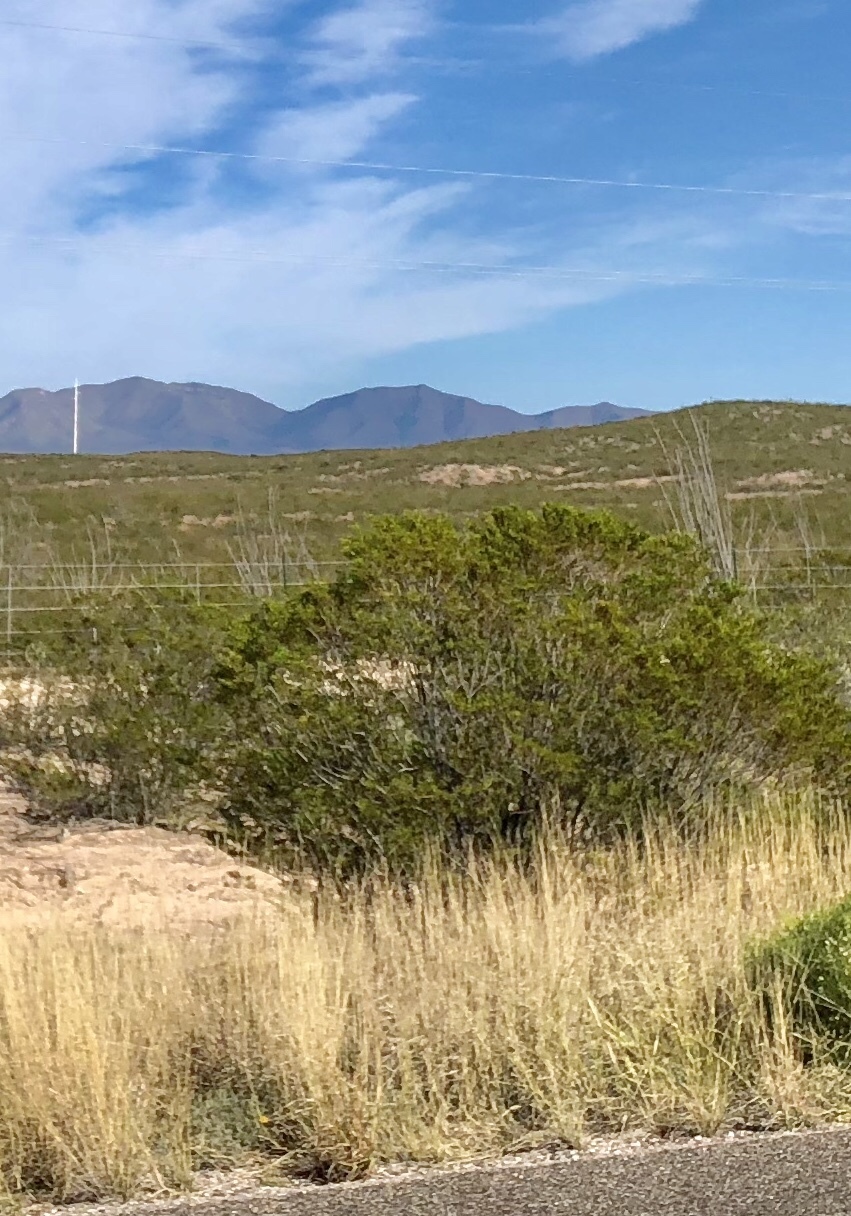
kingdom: Plantae
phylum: Tracheophyta
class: Magnoliopsida
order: Zygophyllales
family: Zygophyllaceae
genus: Larrea
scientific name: Larrea tridentata
